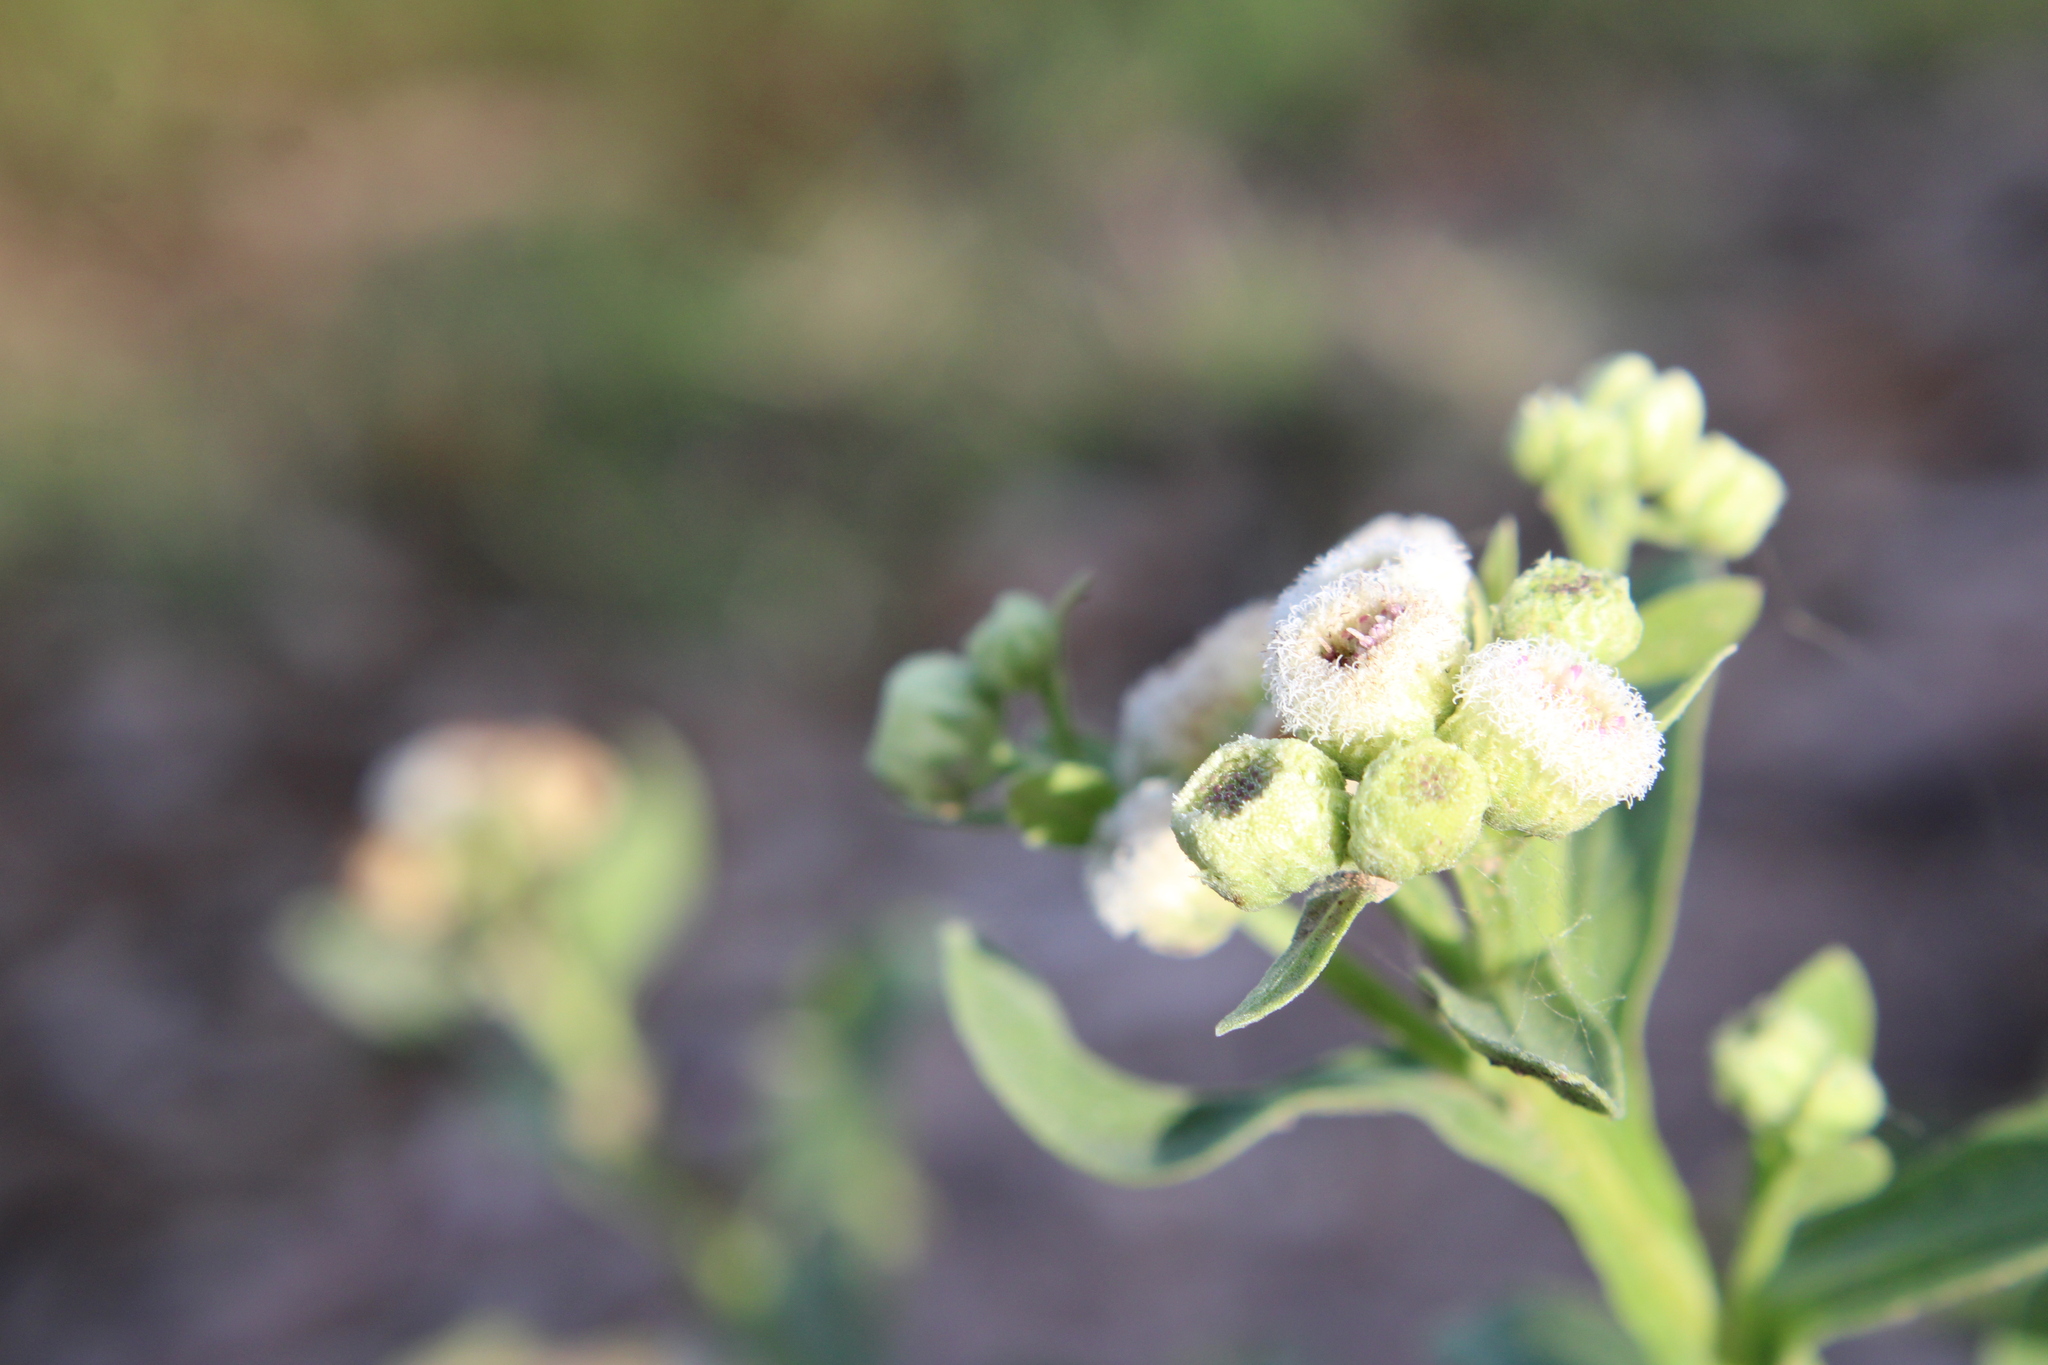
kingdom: Plantae
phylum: Tracheophyta
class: Magnoliopsida
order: Asterales
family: Asteraceae
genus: Pluchea
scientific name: Pluchea sagittalis
